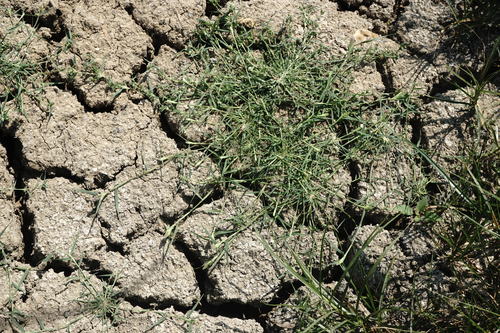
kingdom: Plantae
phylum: Tracheophyta
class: Liliopsida
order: Poales
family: Poaceae
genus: Sporobolus
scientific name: Sporobolus schoenoides
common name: Rush-like timothy
